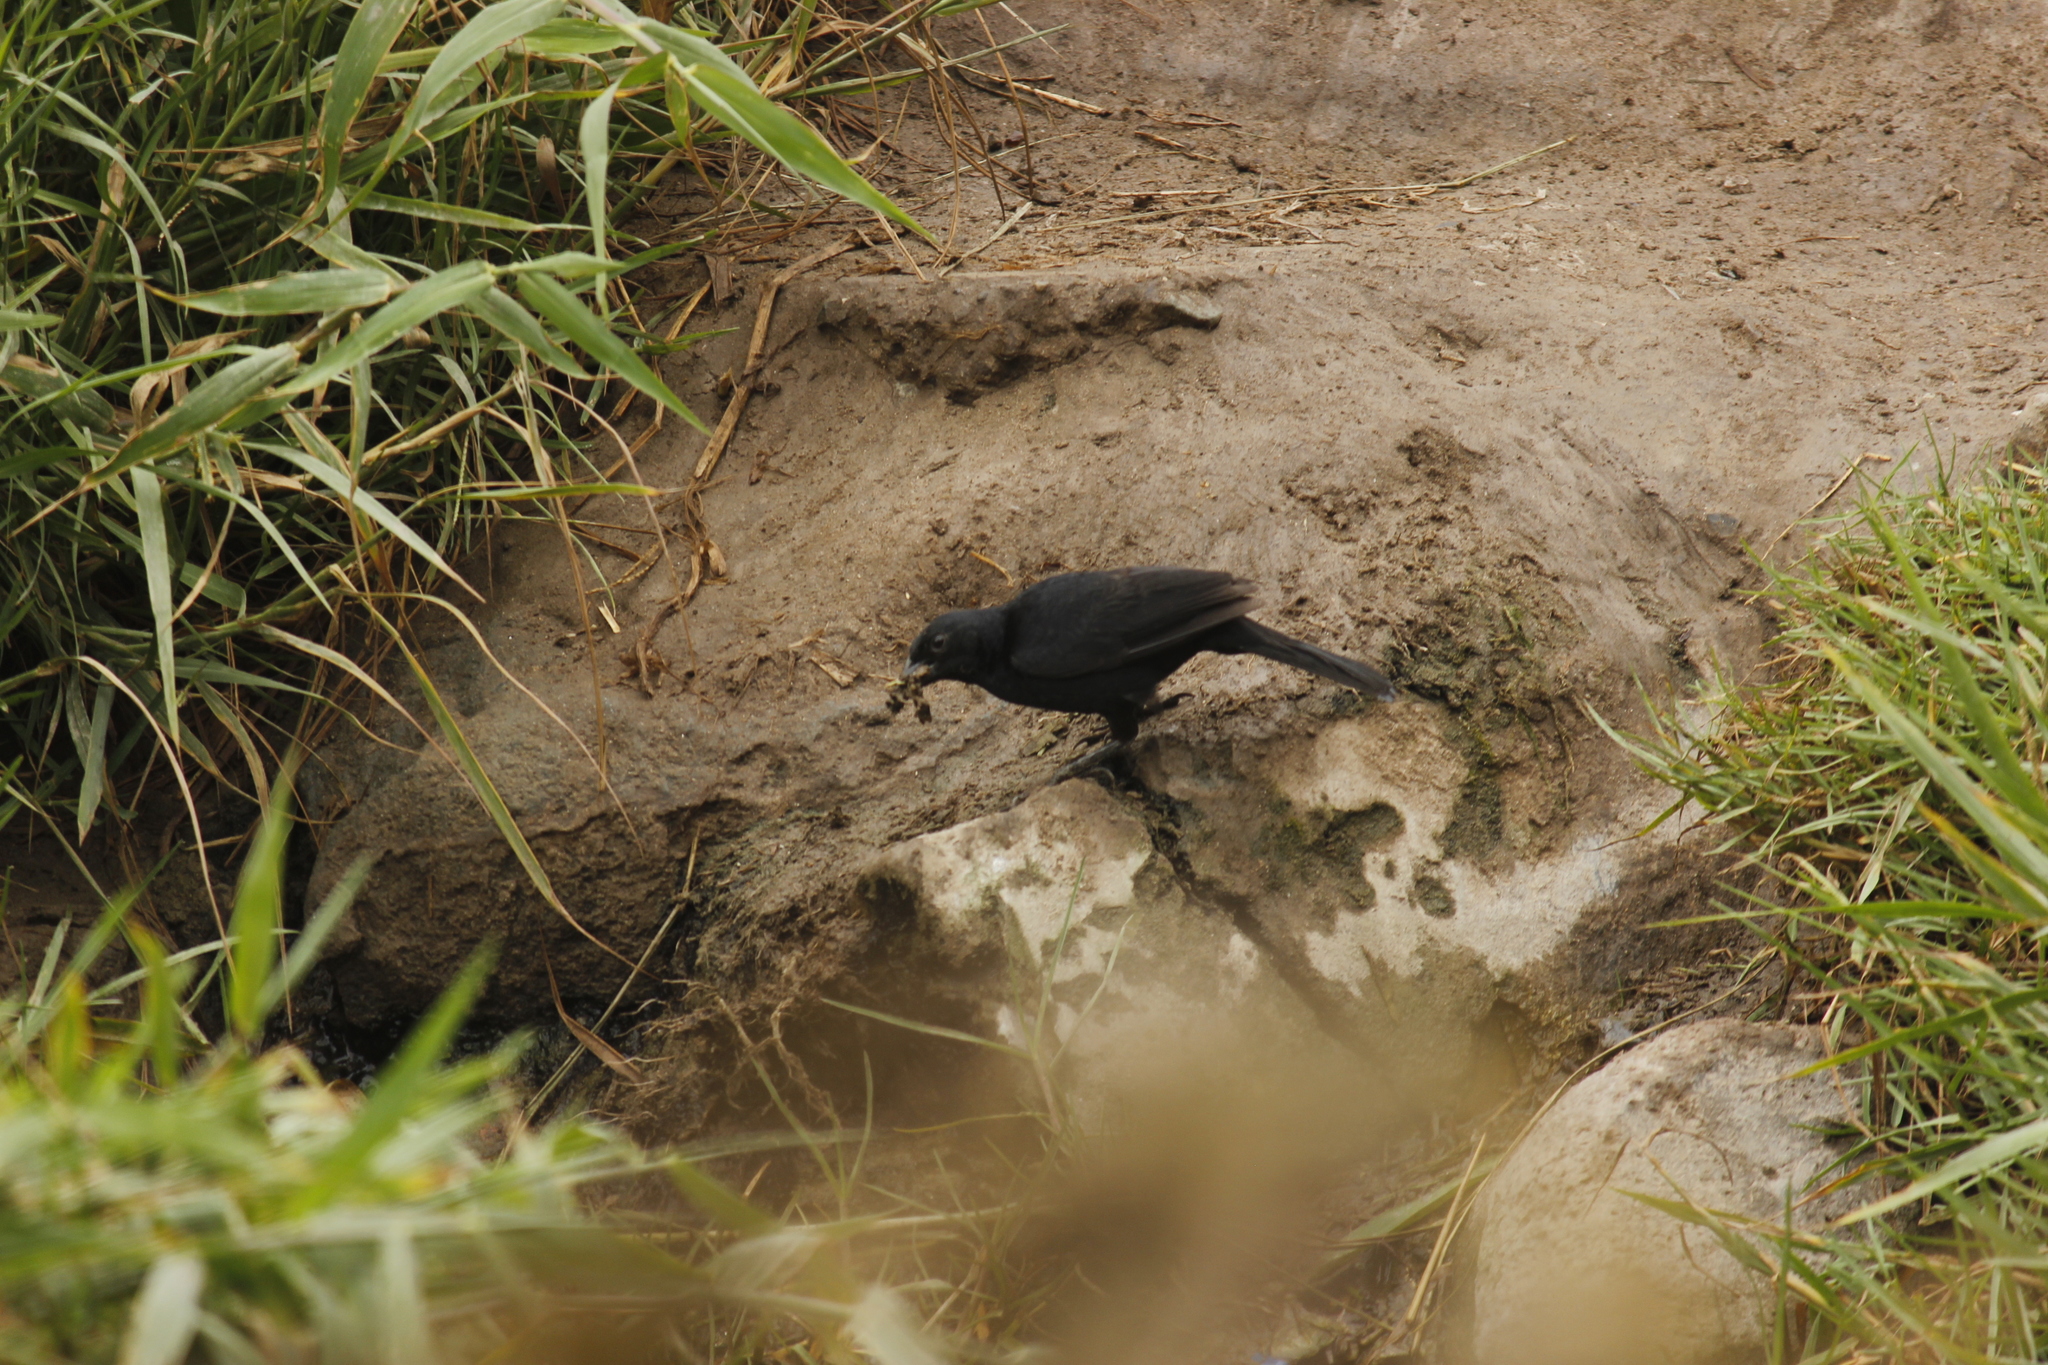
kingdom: Animalia
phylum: Chordata
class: Aves
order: Passeriformes
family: Icteridae
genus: Dives
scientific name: Dives warczewiczi
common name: Scrub blackbird
